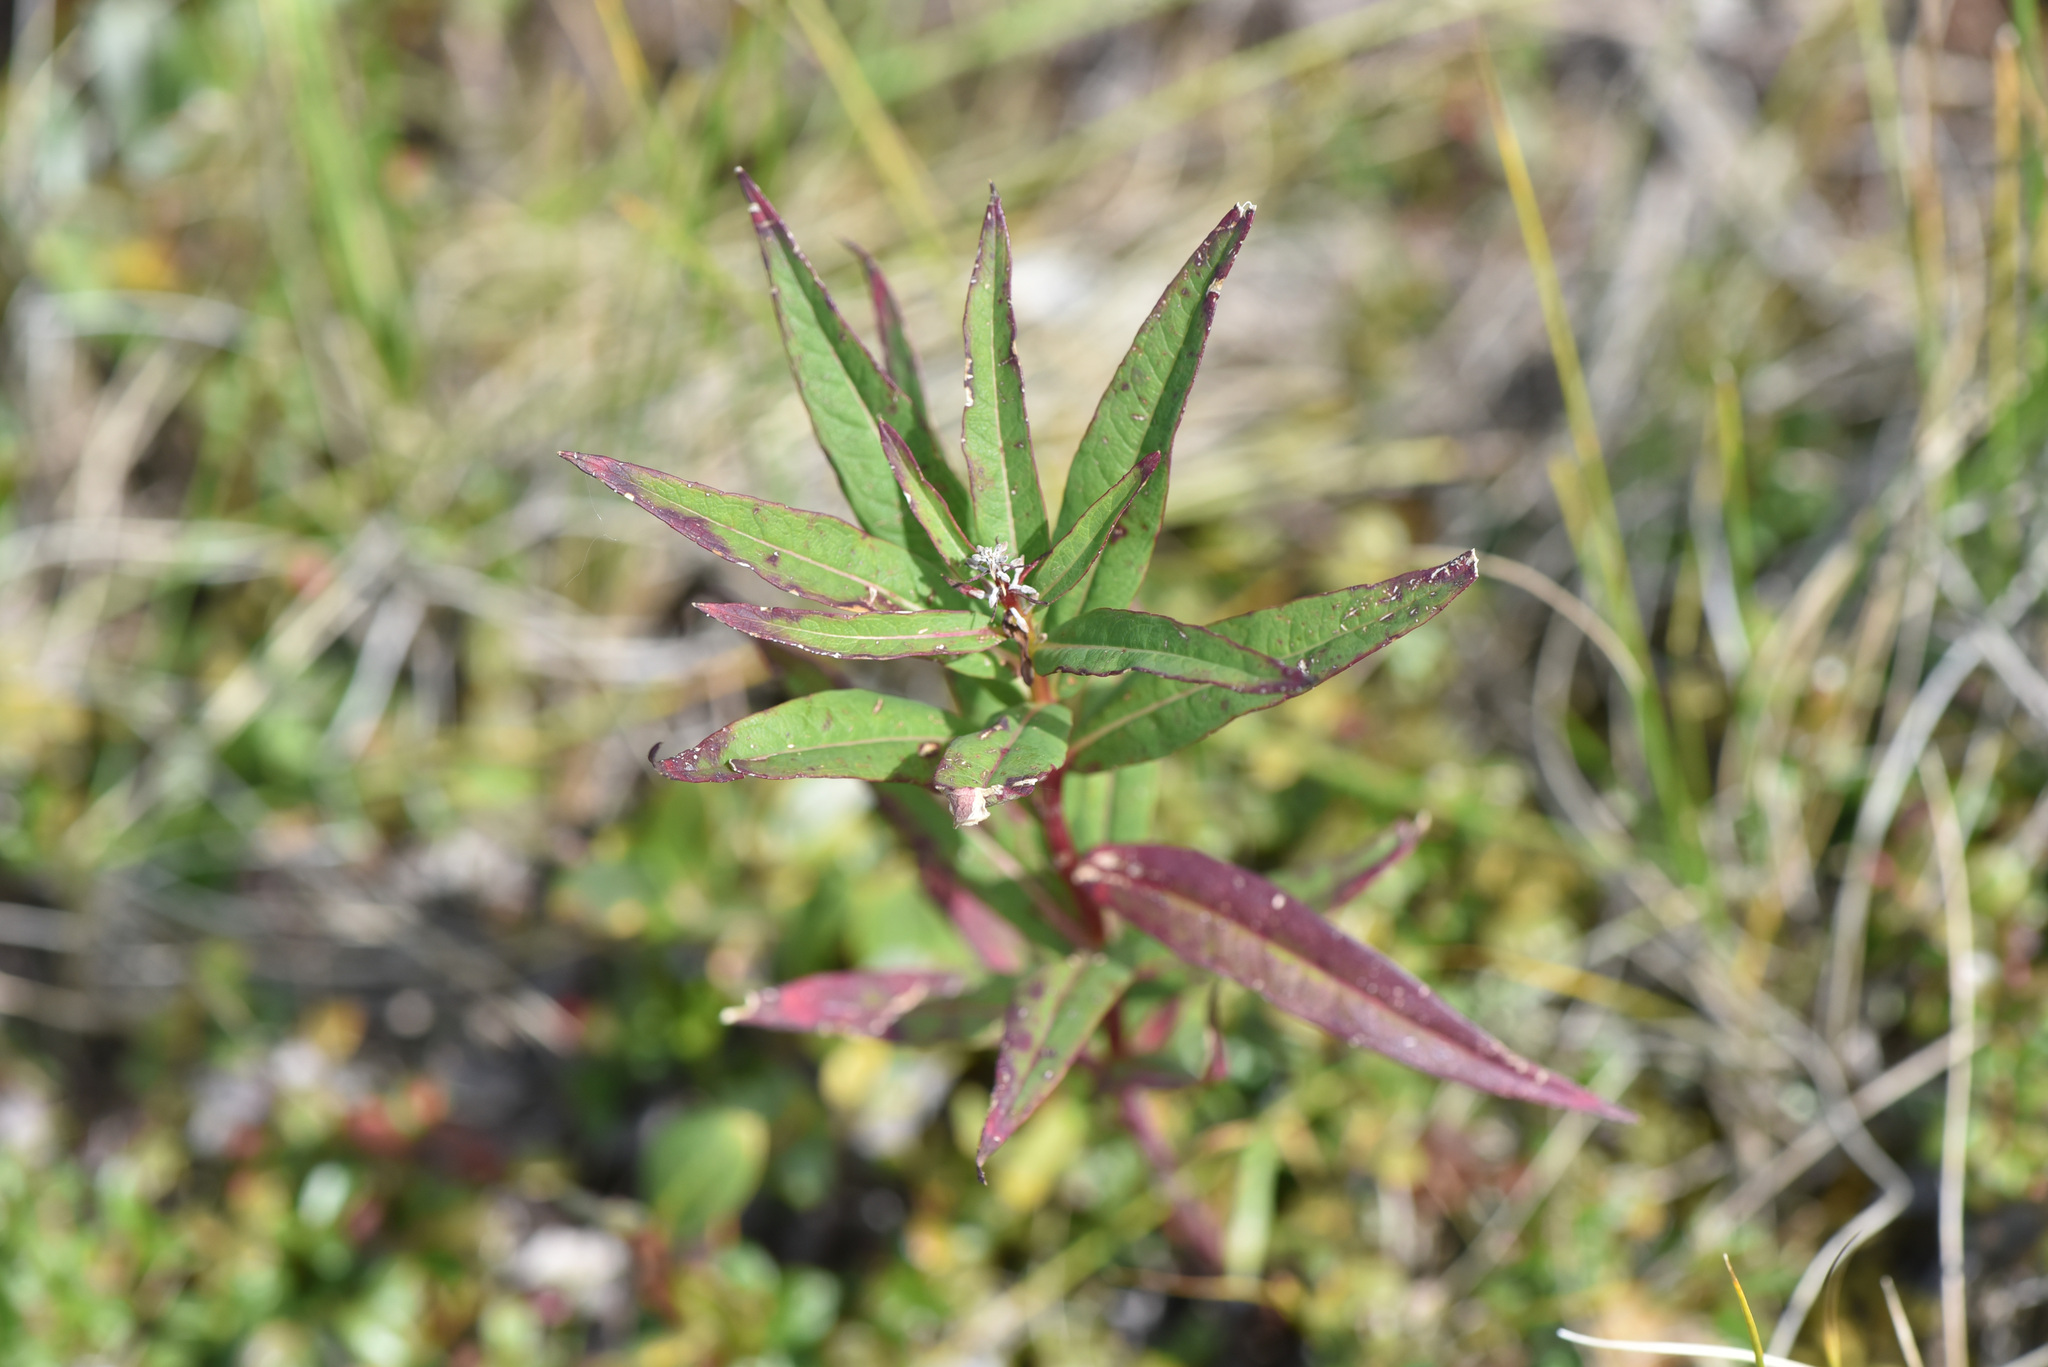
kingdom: Plantae
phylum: Tracheophyta
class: Magnoliopsida
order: Myrtales
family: Onagraceae
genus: Chamaenerion
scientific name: Chamaenerion angustifolium
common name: Fireweed
